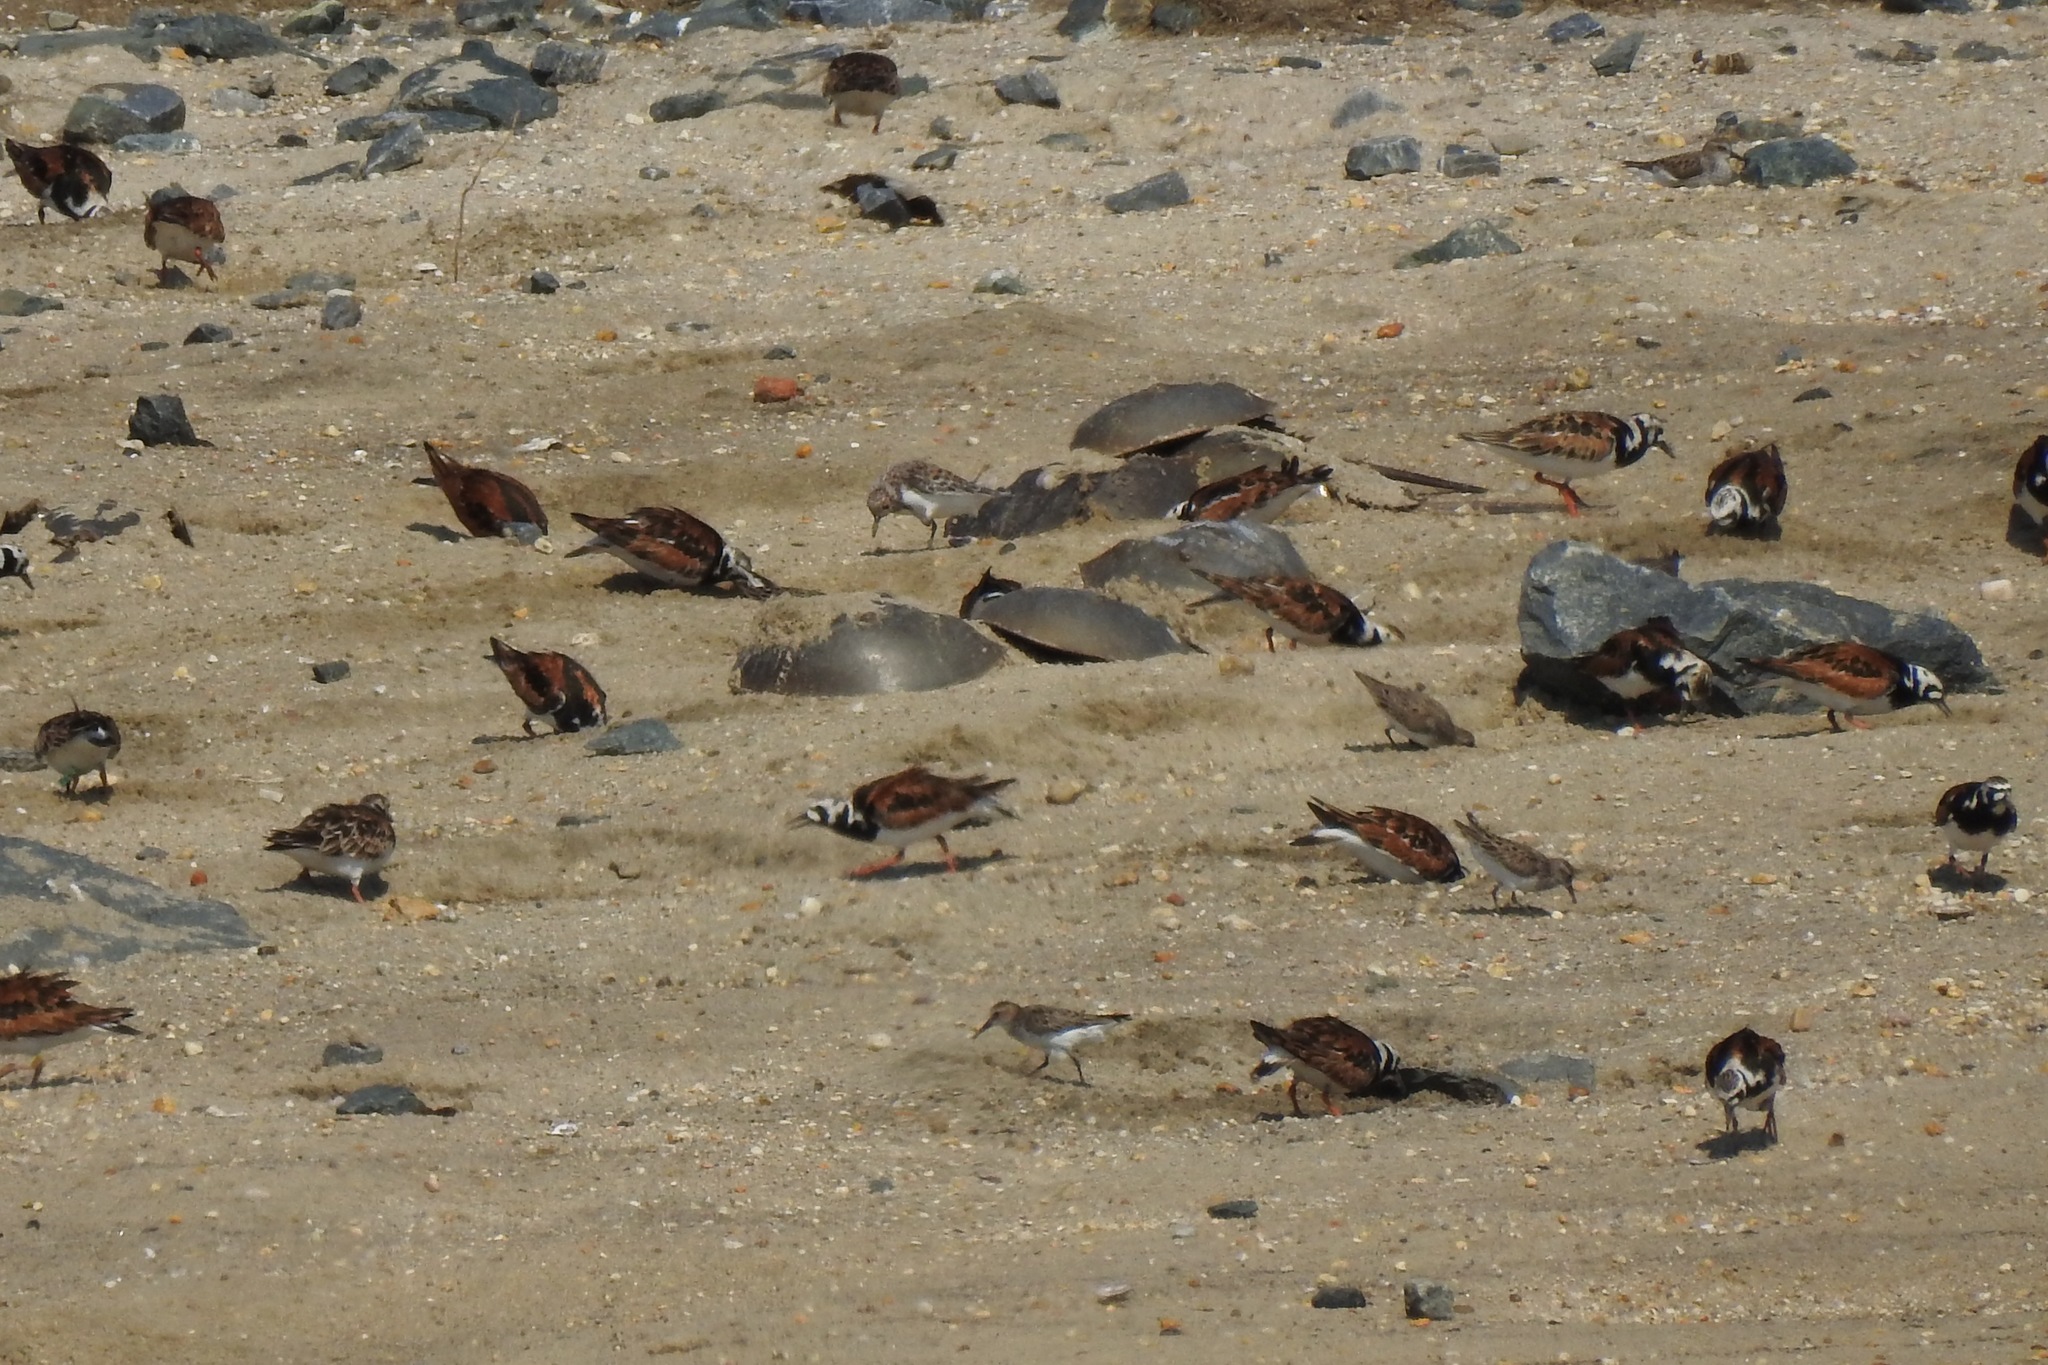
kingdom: Animalia
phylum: Chordata
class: Aves
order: Charadriiformes
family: Scolopacidae
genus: Arenaria
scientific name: Arenaria interpres
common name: Ruddy turnstone
